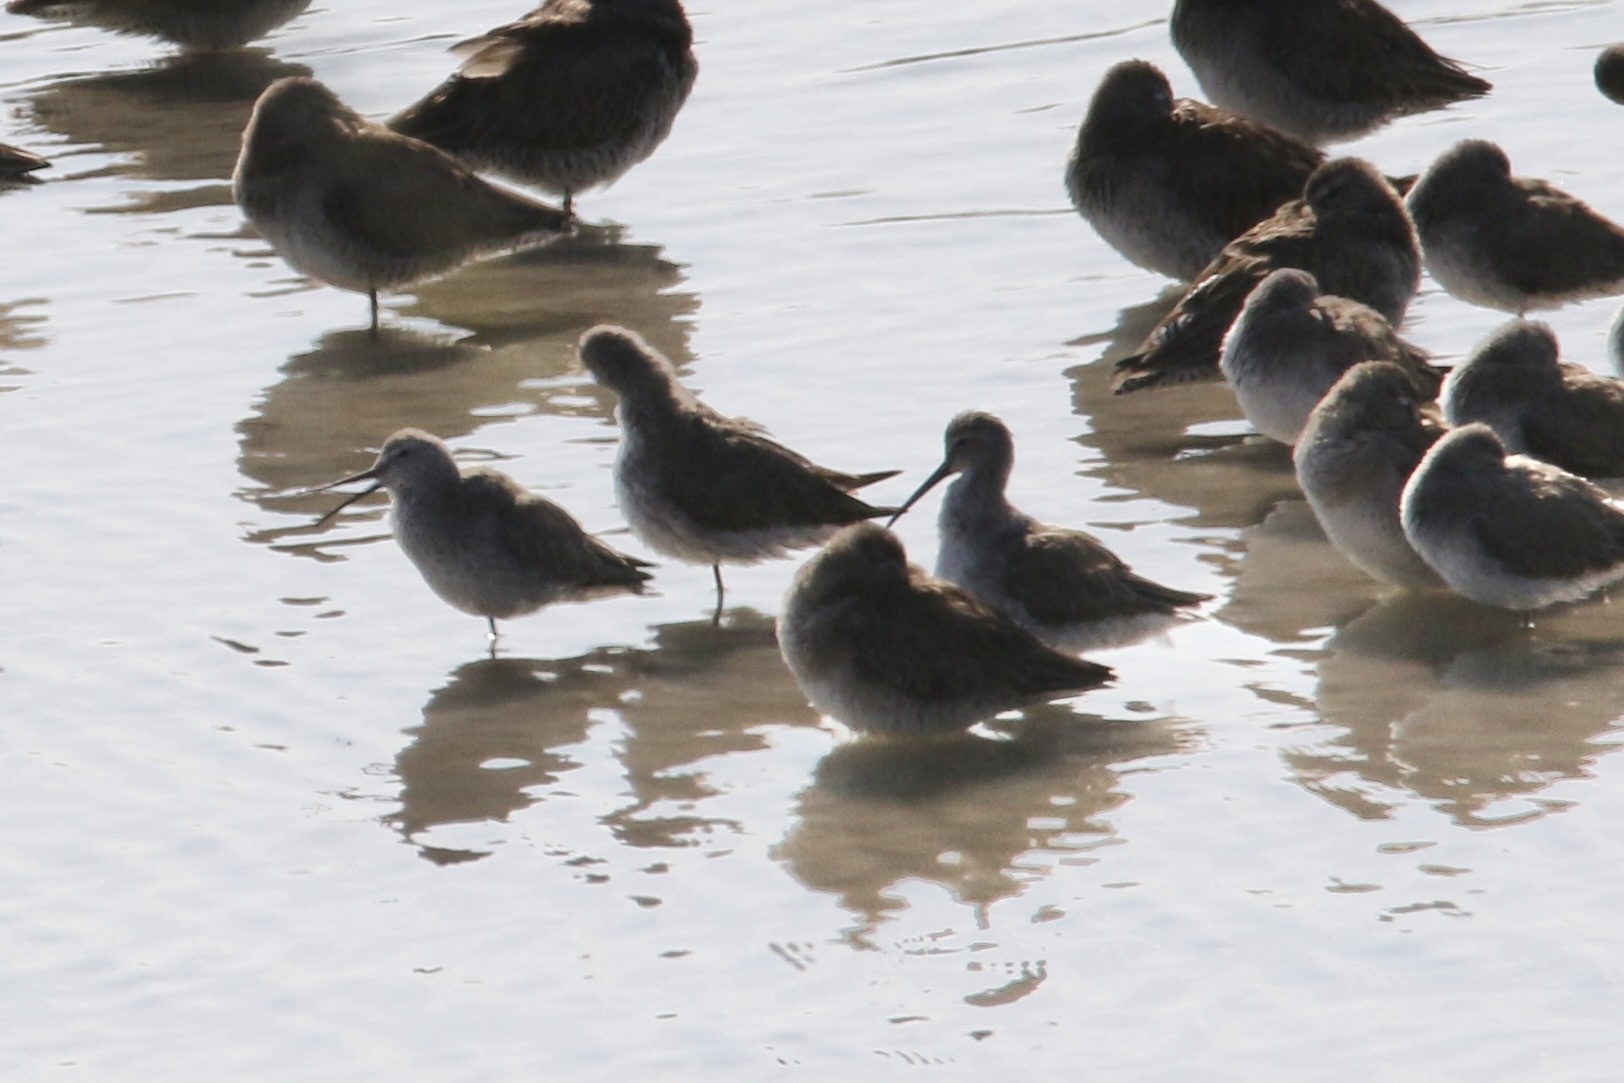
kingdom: Animalia
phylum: Chordata
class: Aves
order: Charadriiformes
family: Scolopacidae
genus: Calidris
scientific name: Calidris himantopus
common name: Stilt sandpiper
